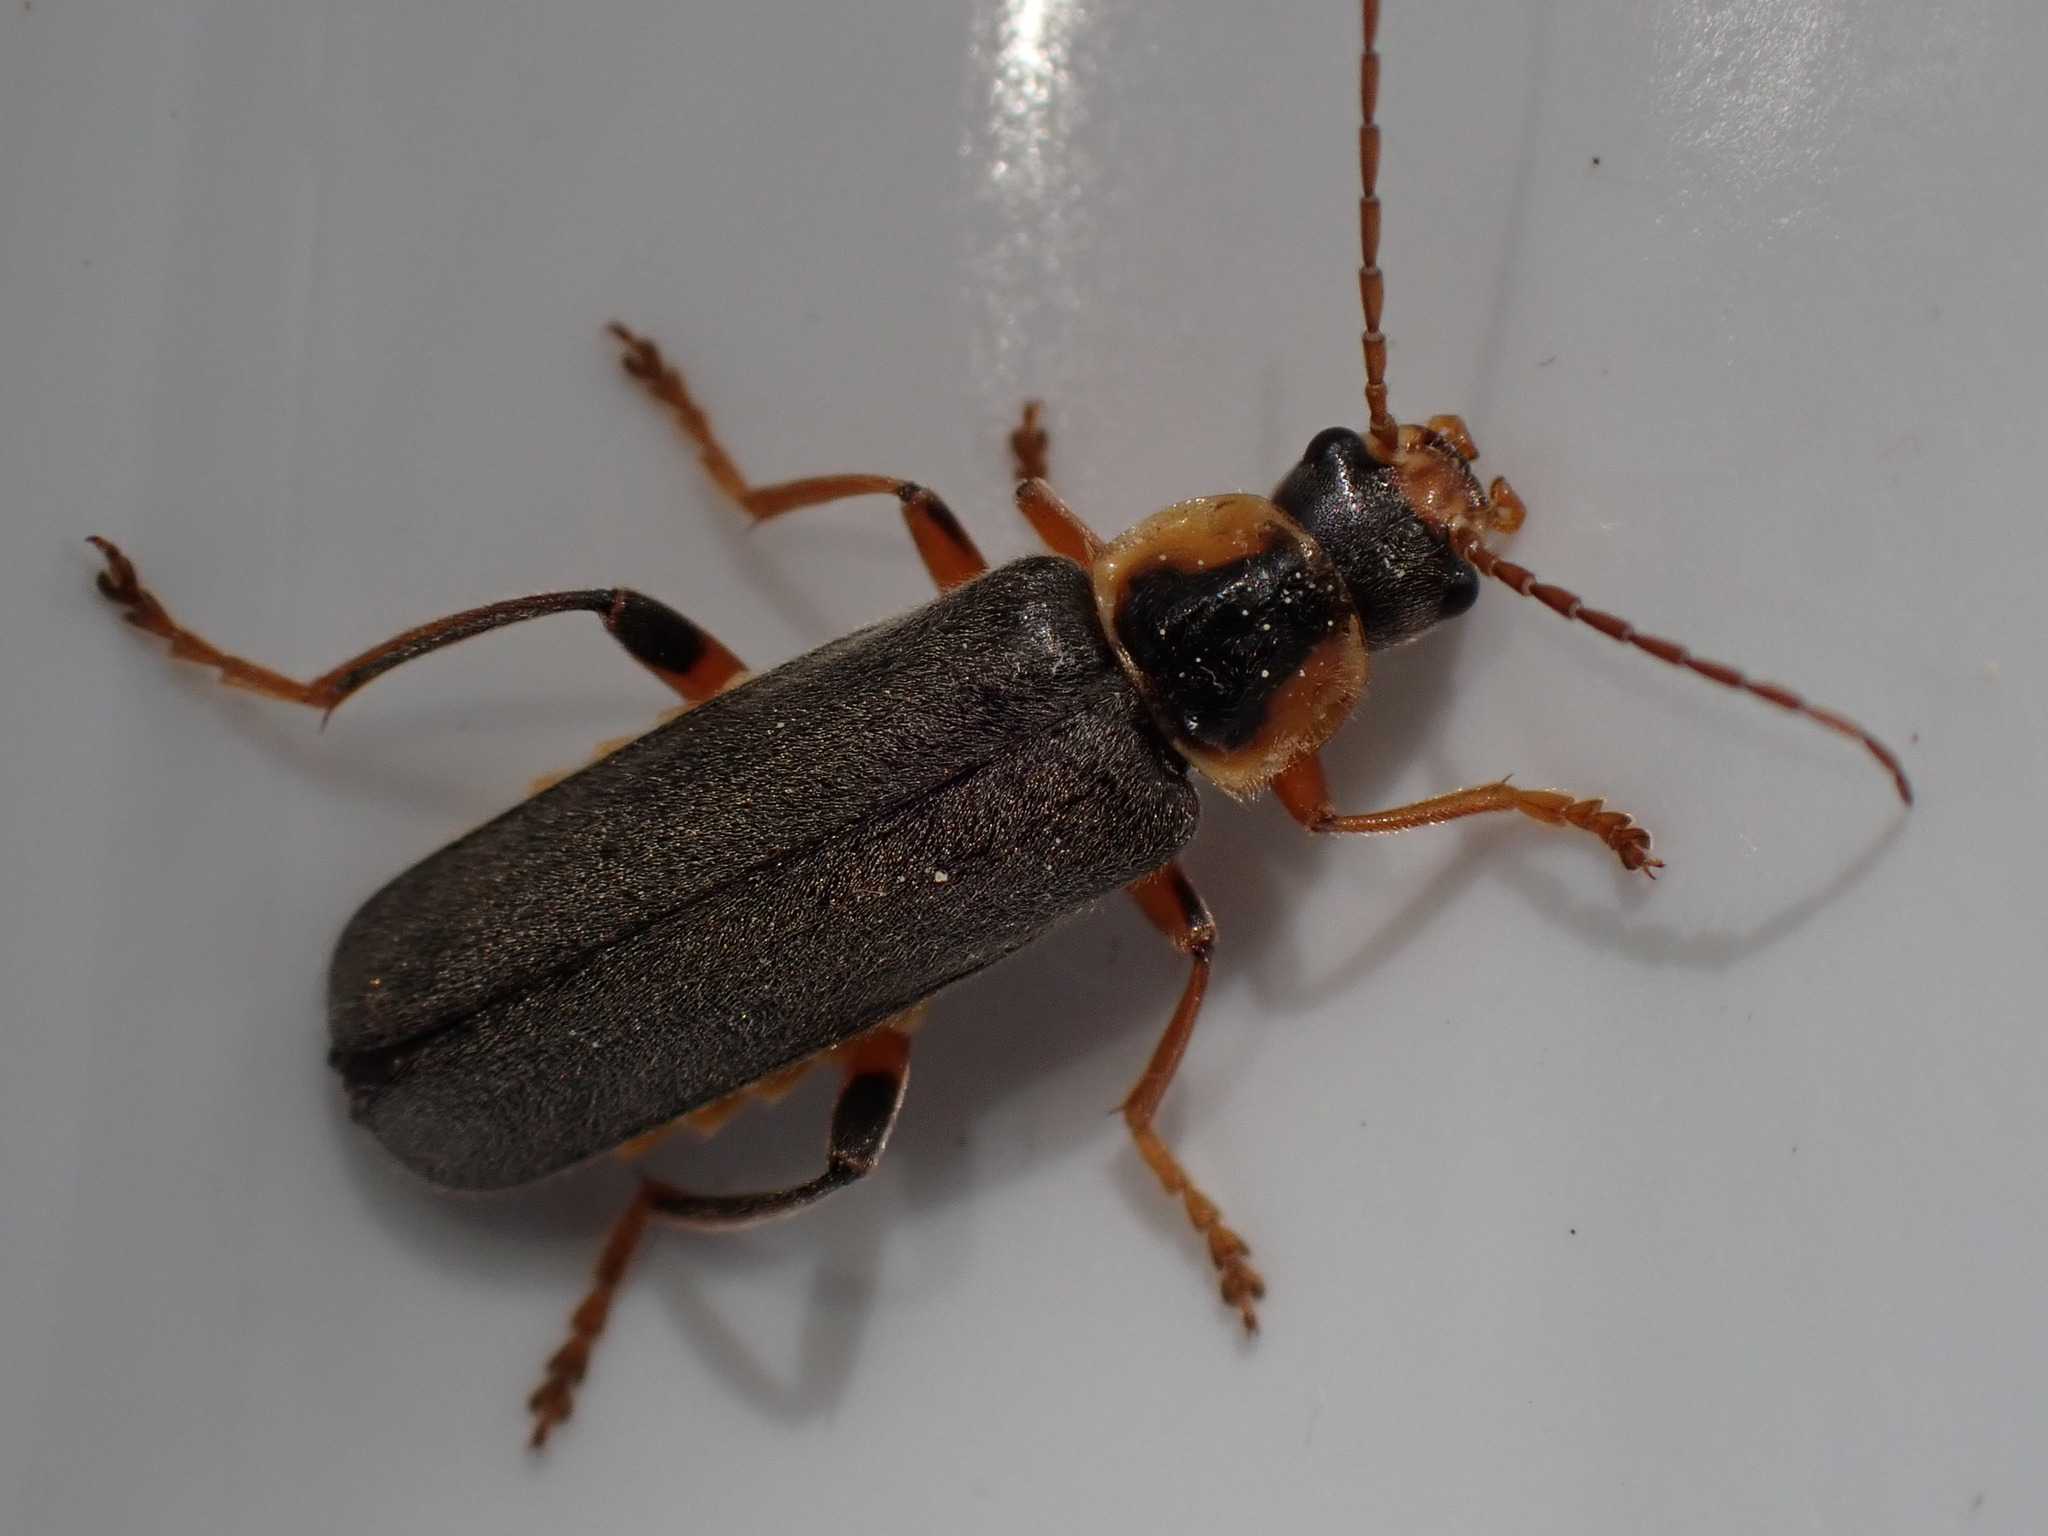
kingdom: Animalia
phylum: Arthropoda
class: Insecta
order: Coleoptera
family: Cantharidae
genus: Cantharis
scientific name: Cantharis nigricans
